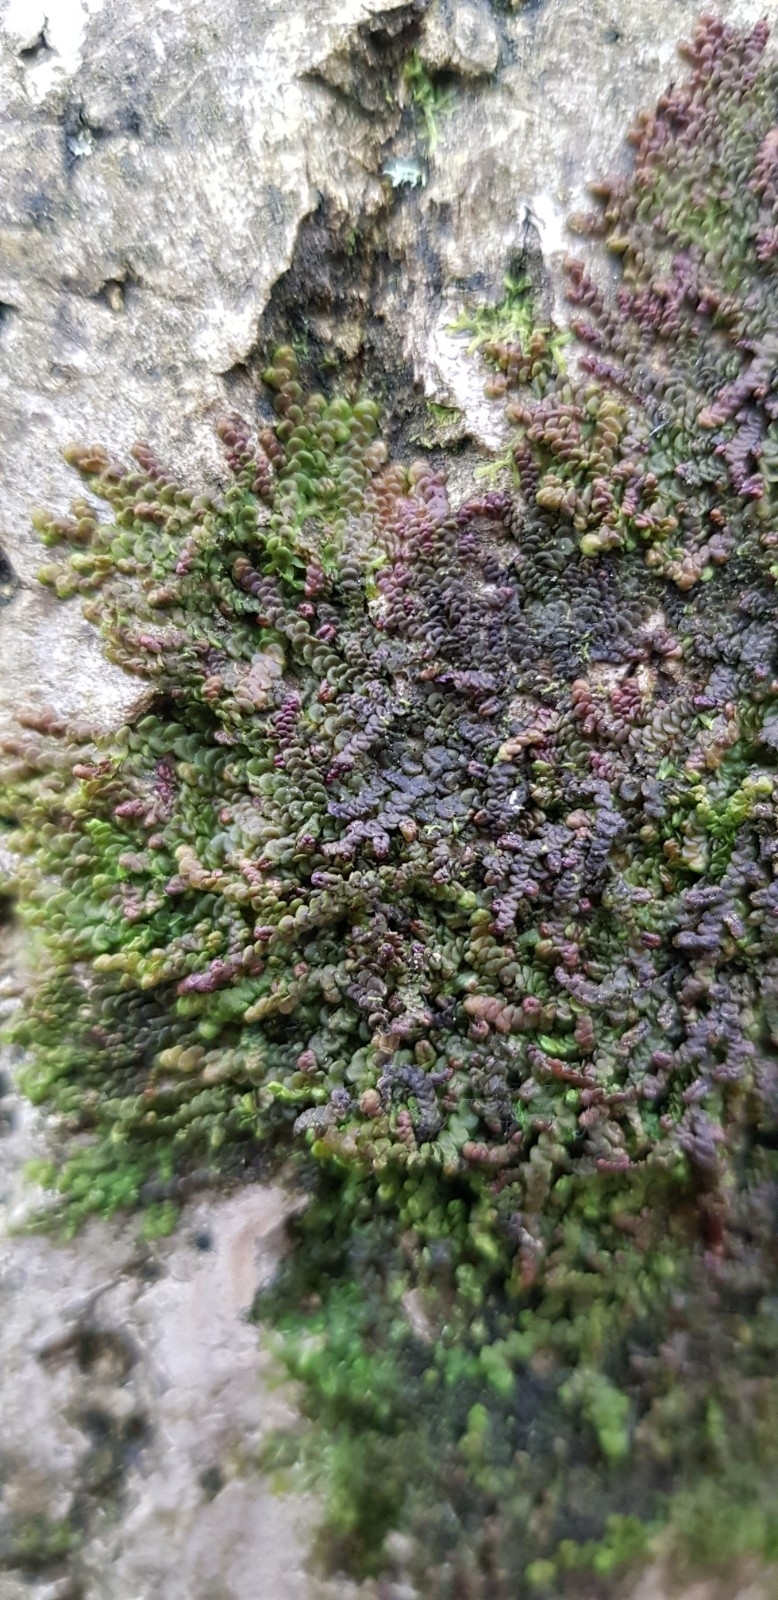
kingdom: Plantae
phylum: Marchantiophyta
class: Jungermanniopsida
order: Porellales
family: Frullaniaceae
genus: Frullania
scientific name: Frullania dilatata
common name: Dilated scalewort
